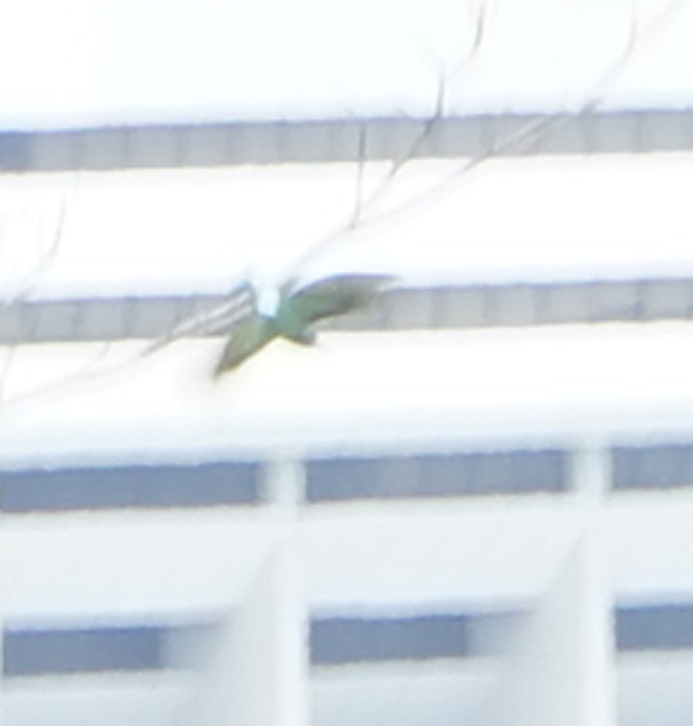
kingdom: Animalia
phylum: Chordata
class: Aves
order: Coraciiformes
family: Meropidae
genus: Merops
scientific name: Merops viridis
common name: Blue-throated bee-eater
